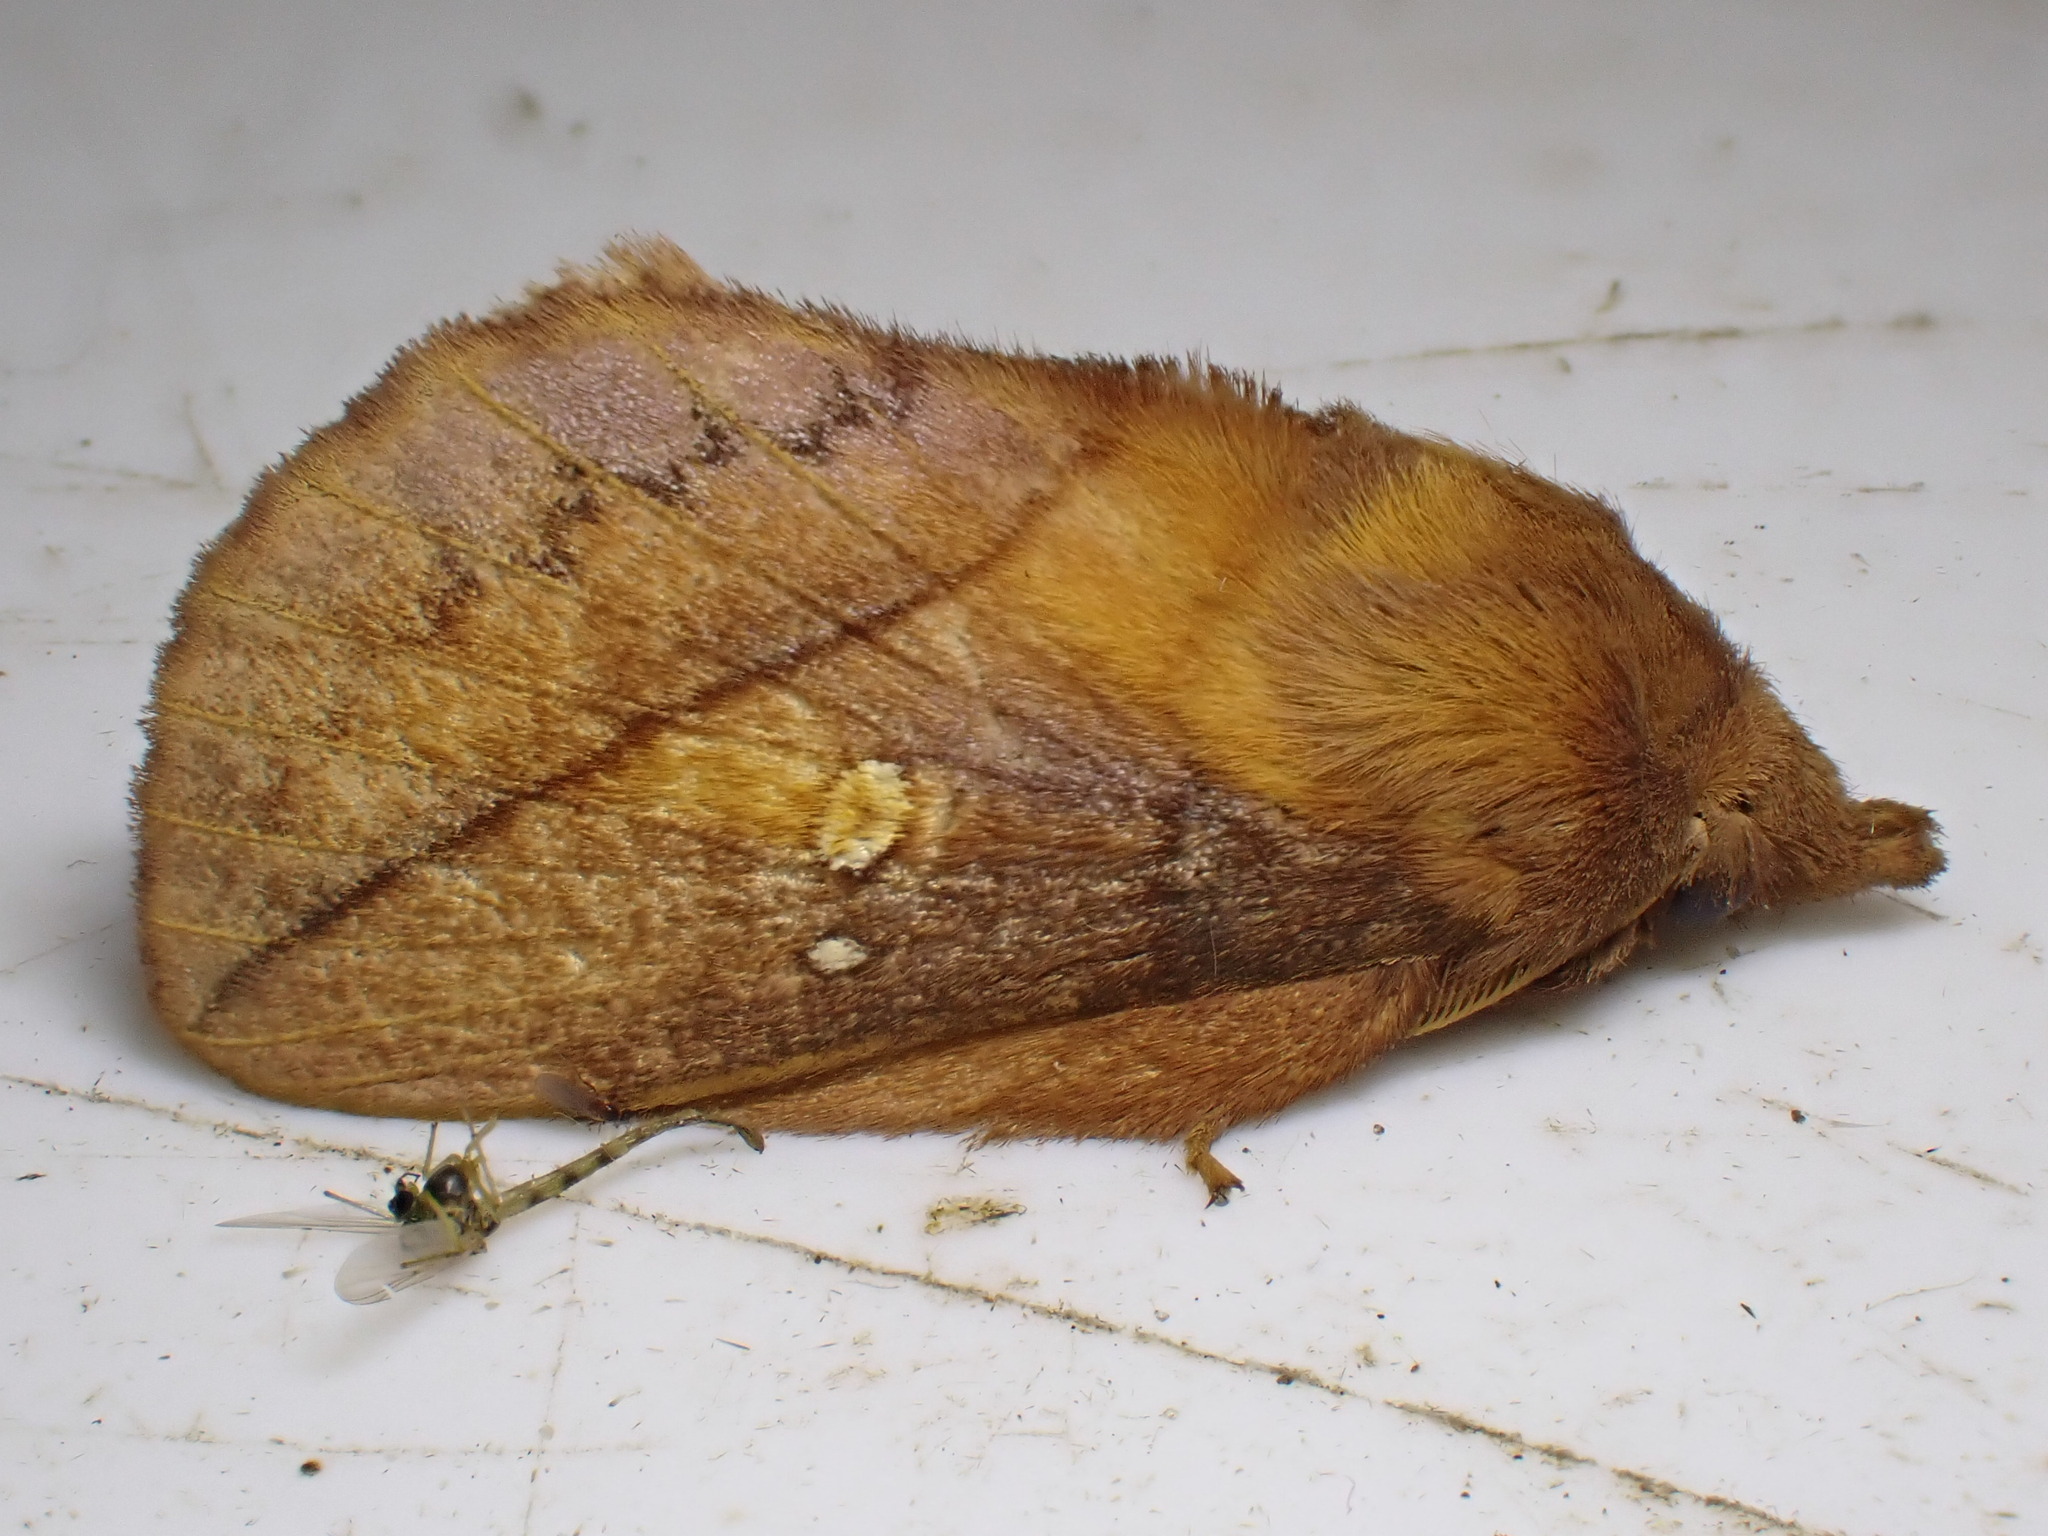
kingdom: Animalia
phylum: Arthropoda
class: Insecta
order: Lepidoptera
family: Lasiocampidae
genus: Euthrix
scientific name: Euthrix potatoria
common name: Drinker
